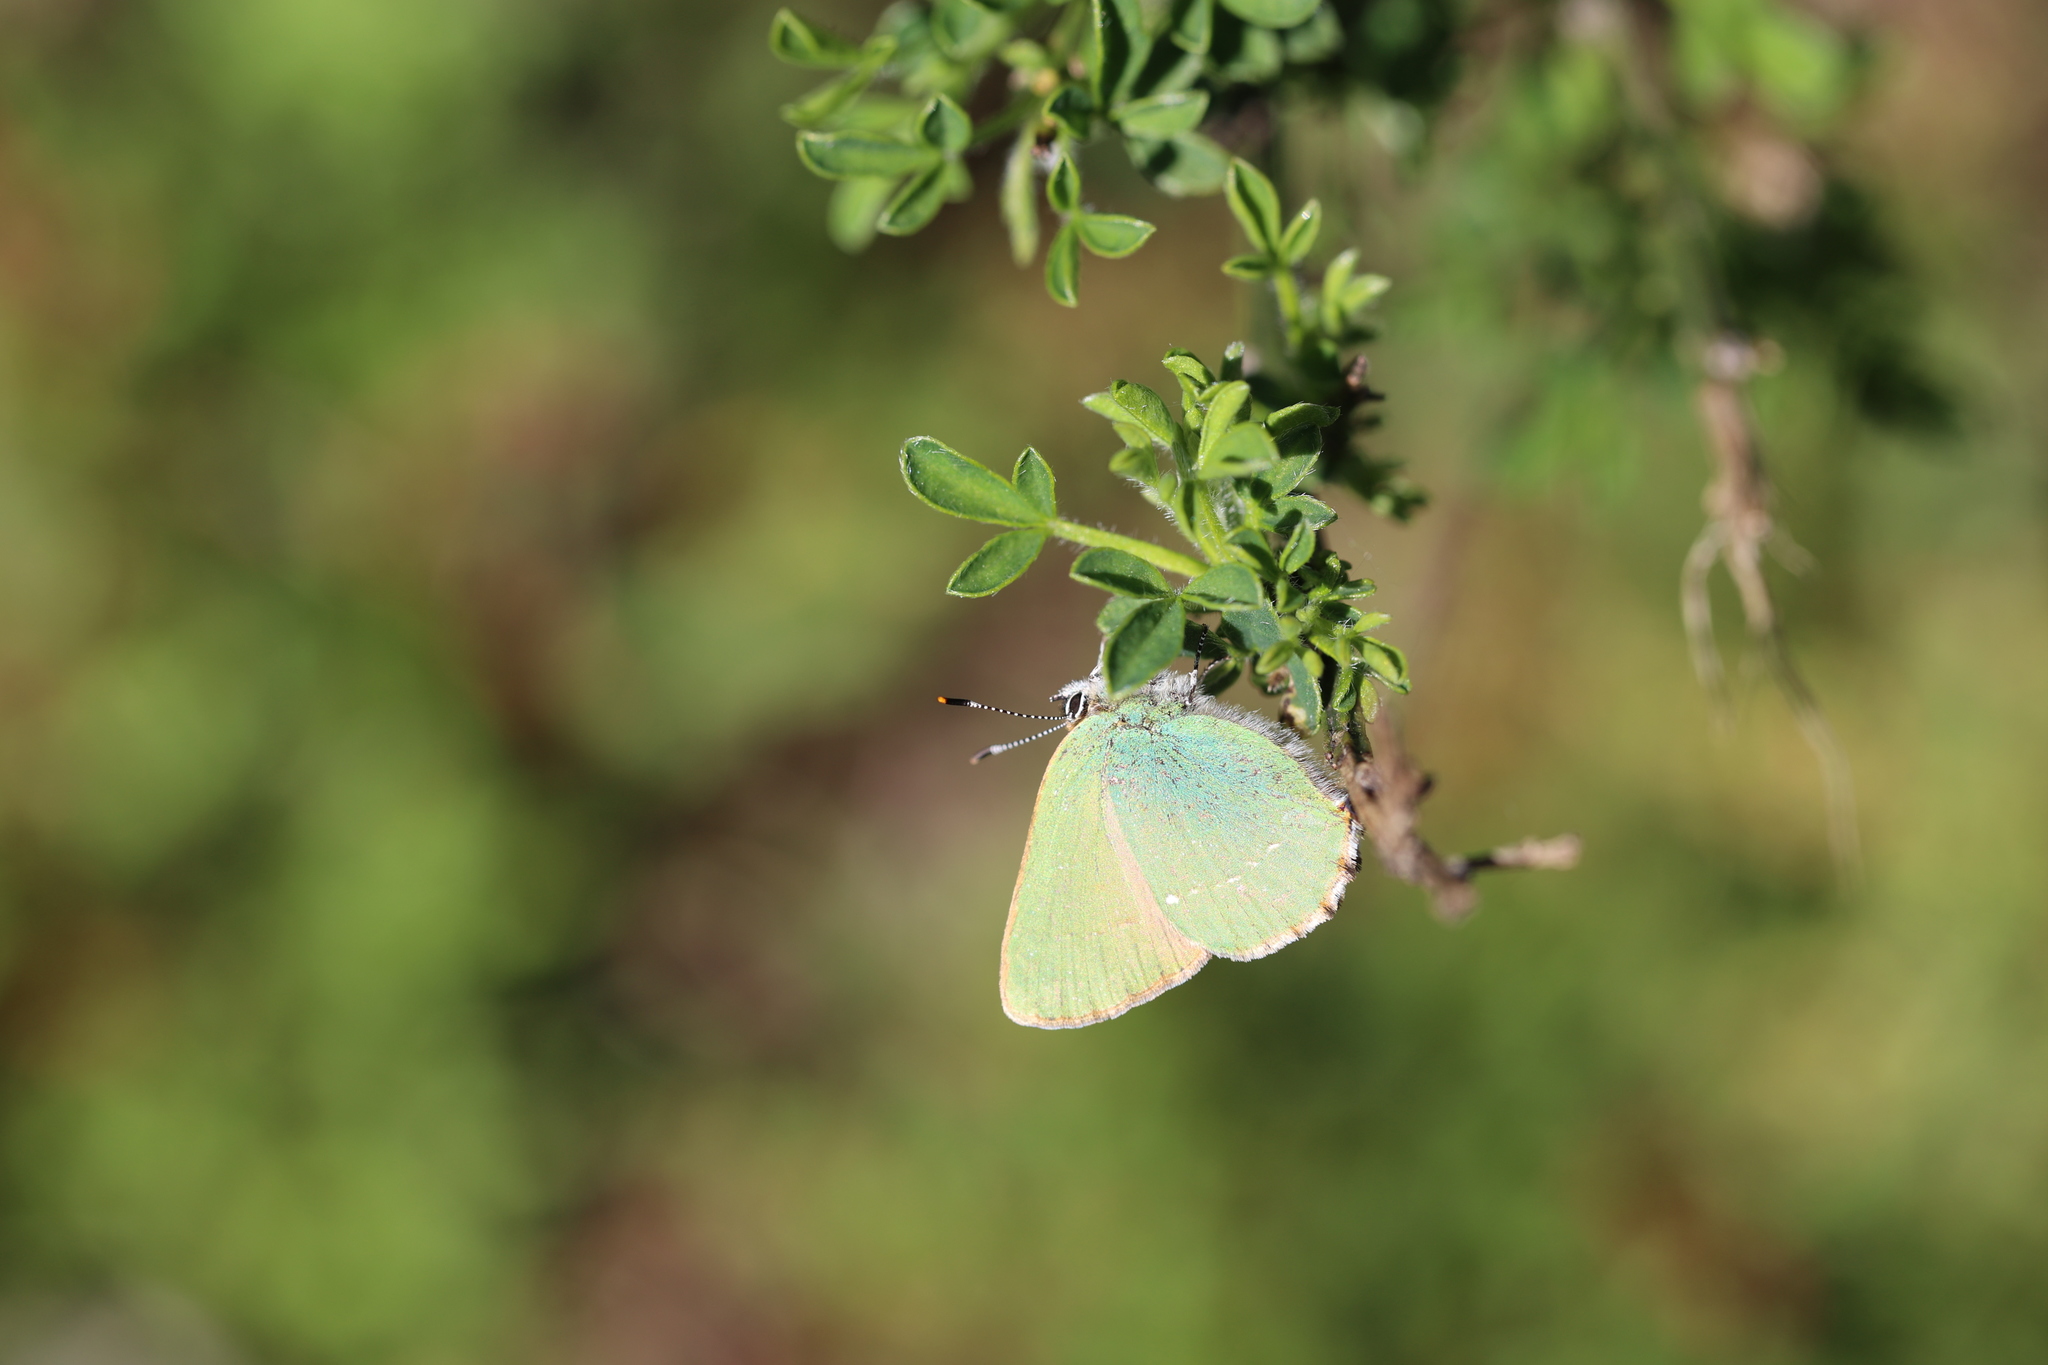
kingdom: Animalia
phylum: Arthropoda
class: Insecta
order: Lepidoptera
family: Lycaenidae
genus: Callophrys
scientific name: Callophrys rubi
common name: Green hairstreak
